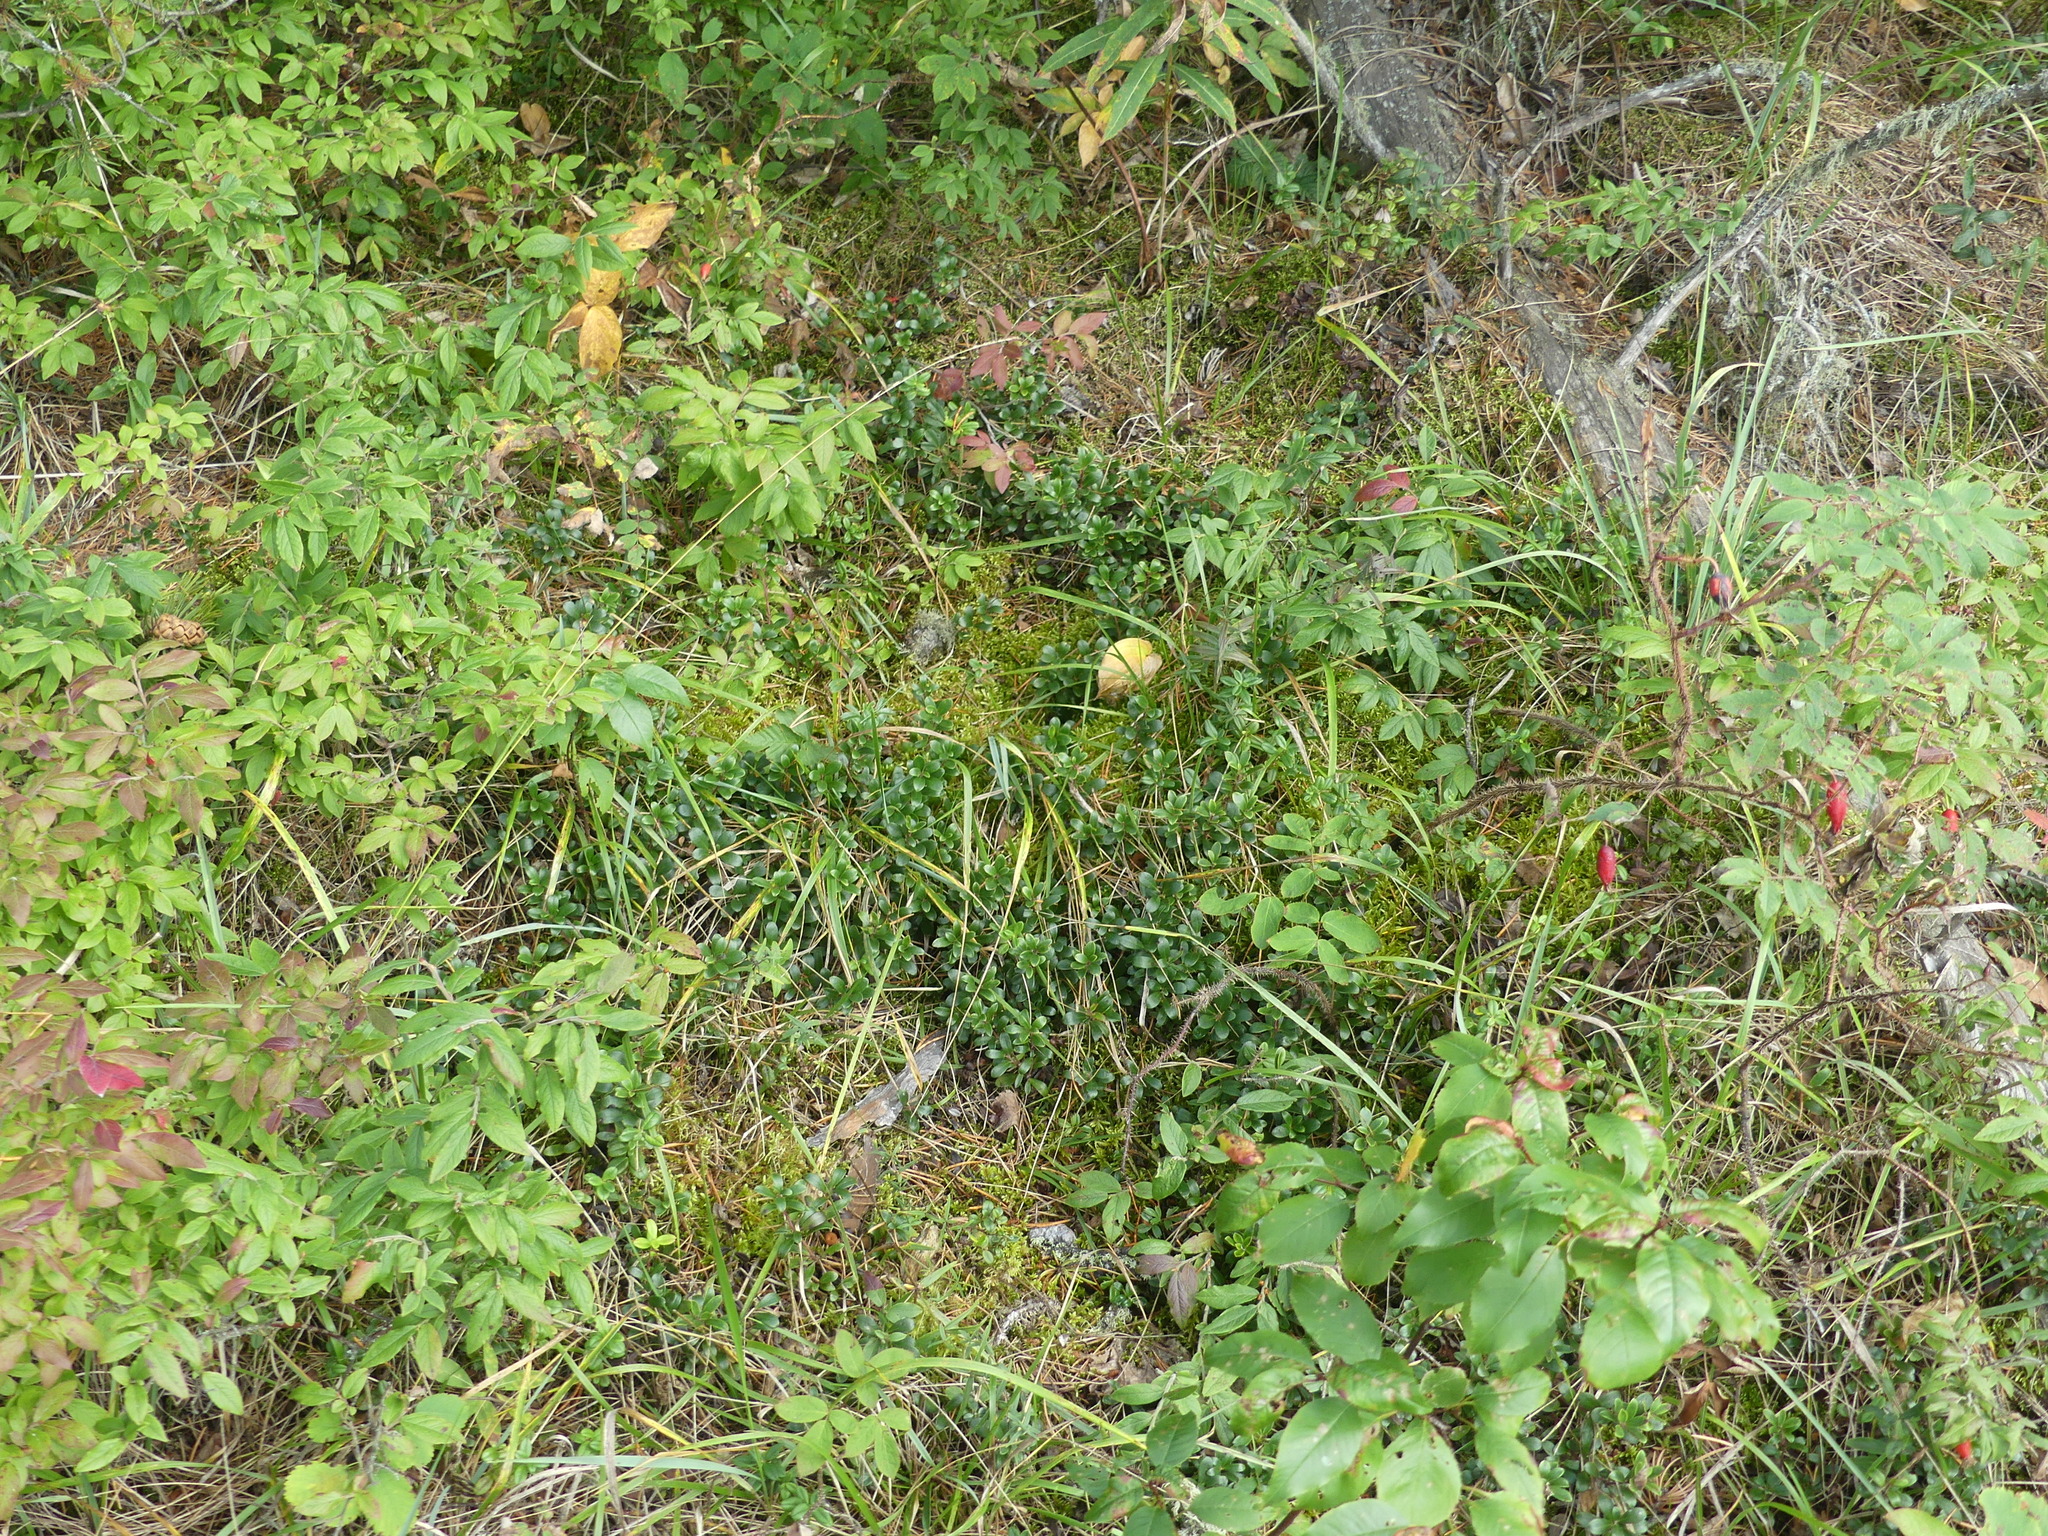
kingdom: Plantae
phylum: Tracheophyta
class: Magnoliopsida
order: Ericales
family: Ericaceae
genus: Arctostaphylos
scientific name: Arctostaphylos uva-ursi
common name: Bearberry
